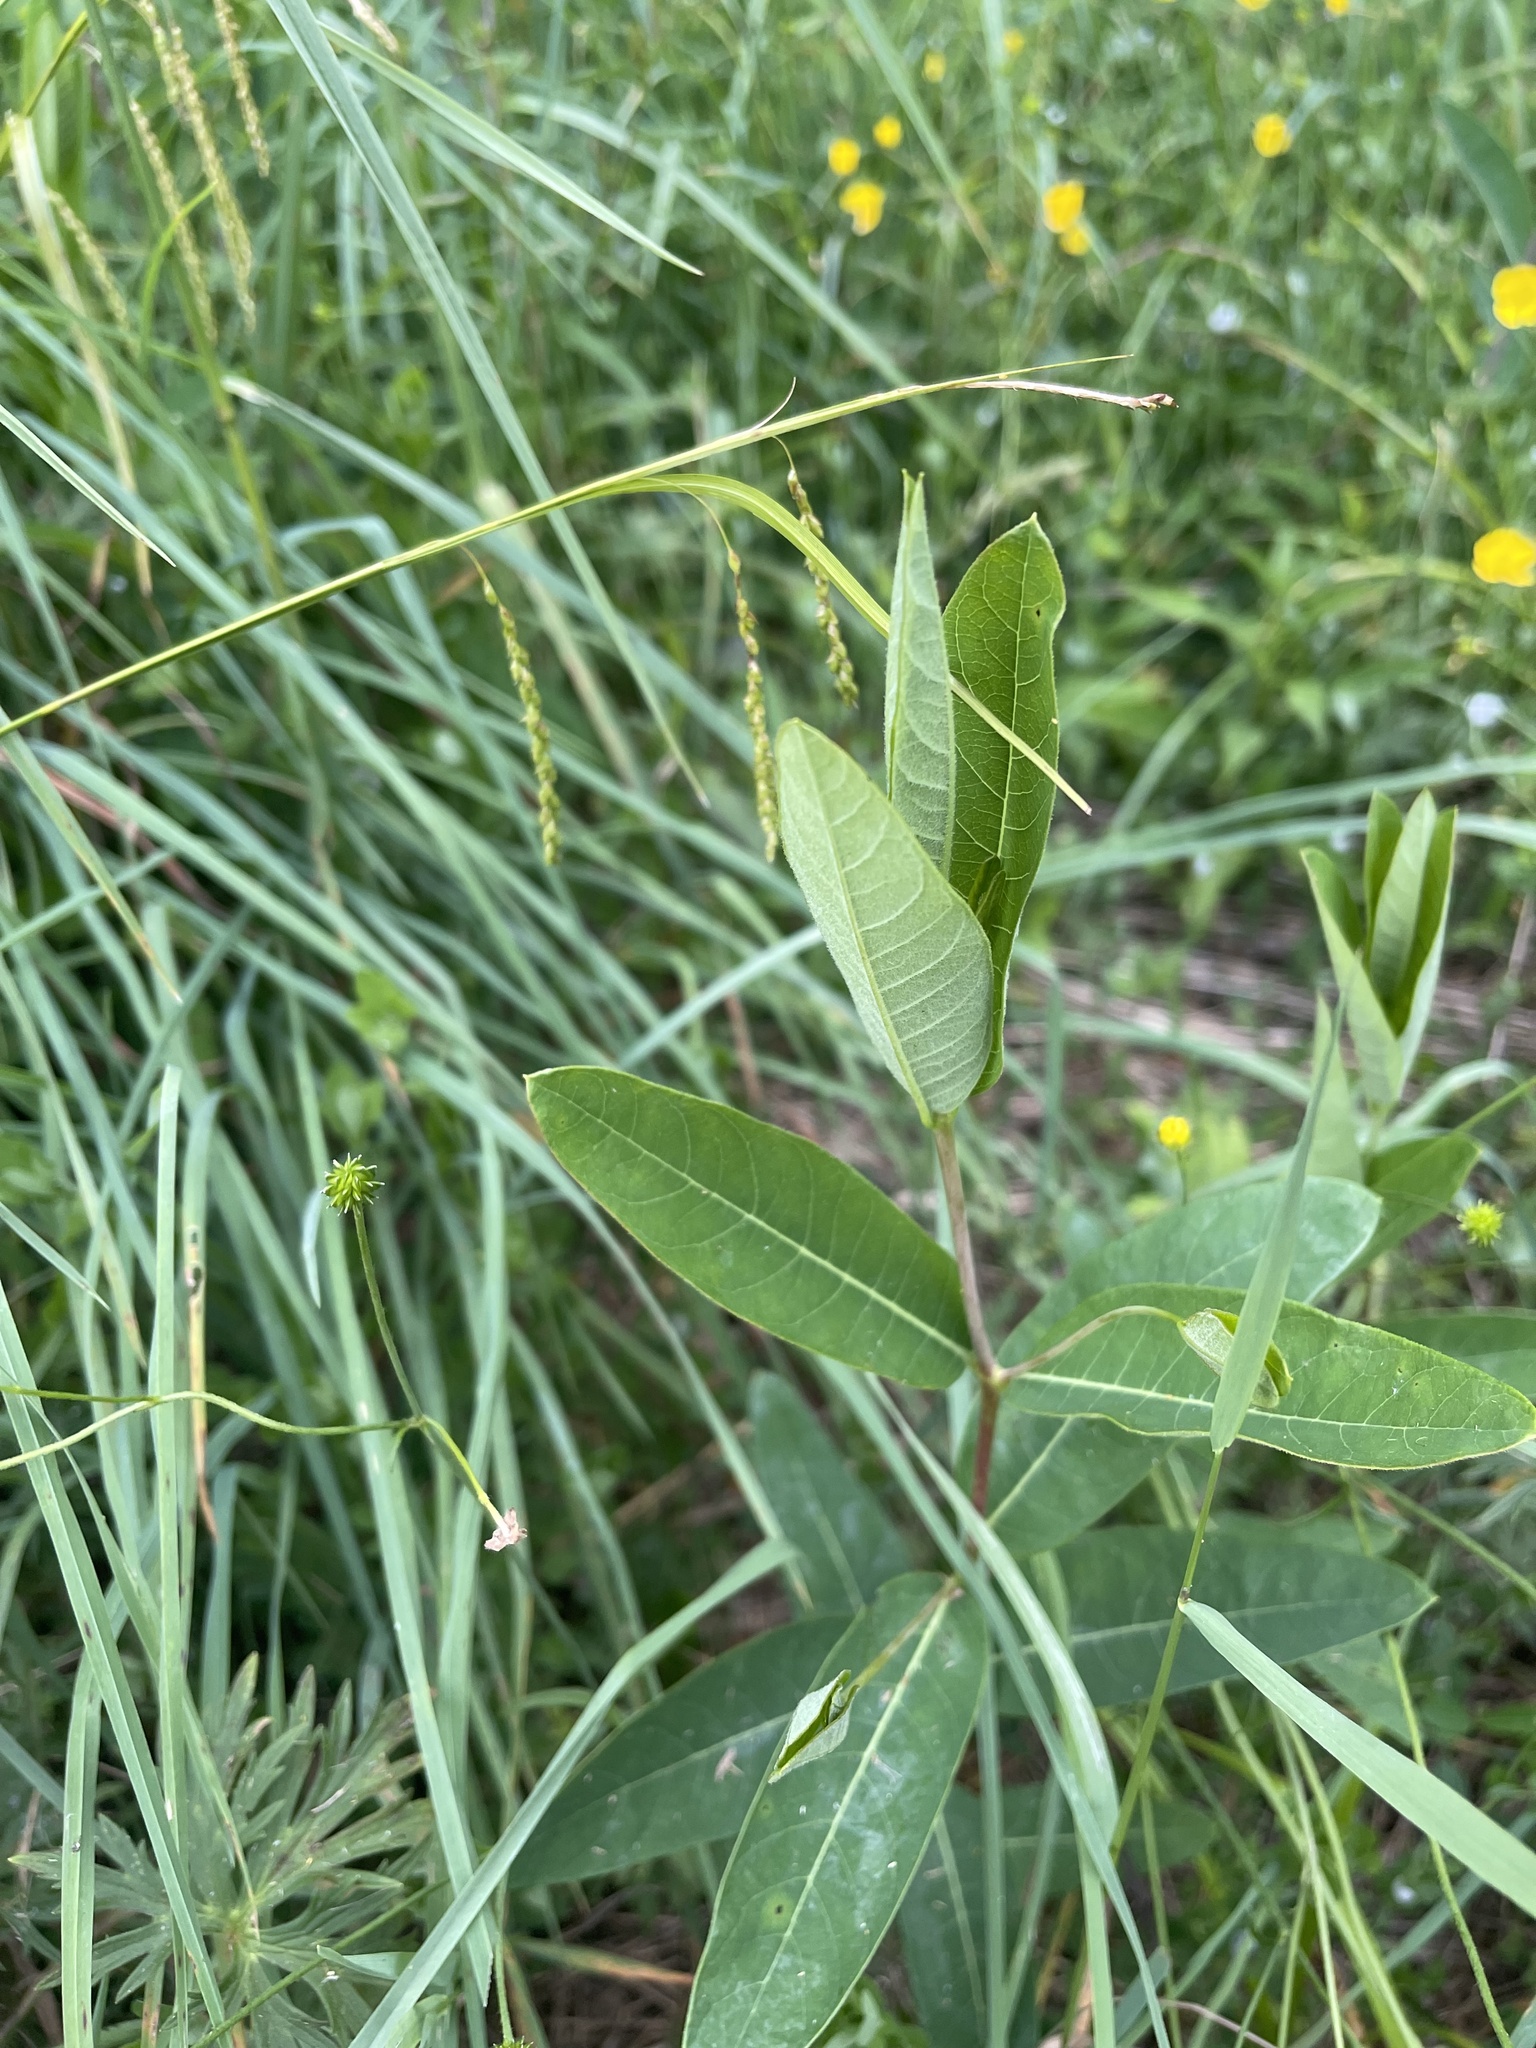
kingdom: Plantae
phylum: Tracheophyta
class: Magnoliopsida
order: Gentianales
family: Apocynaceae
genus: Apocynum
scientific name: Apocynum cannabinum
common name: Hemp dogbane
